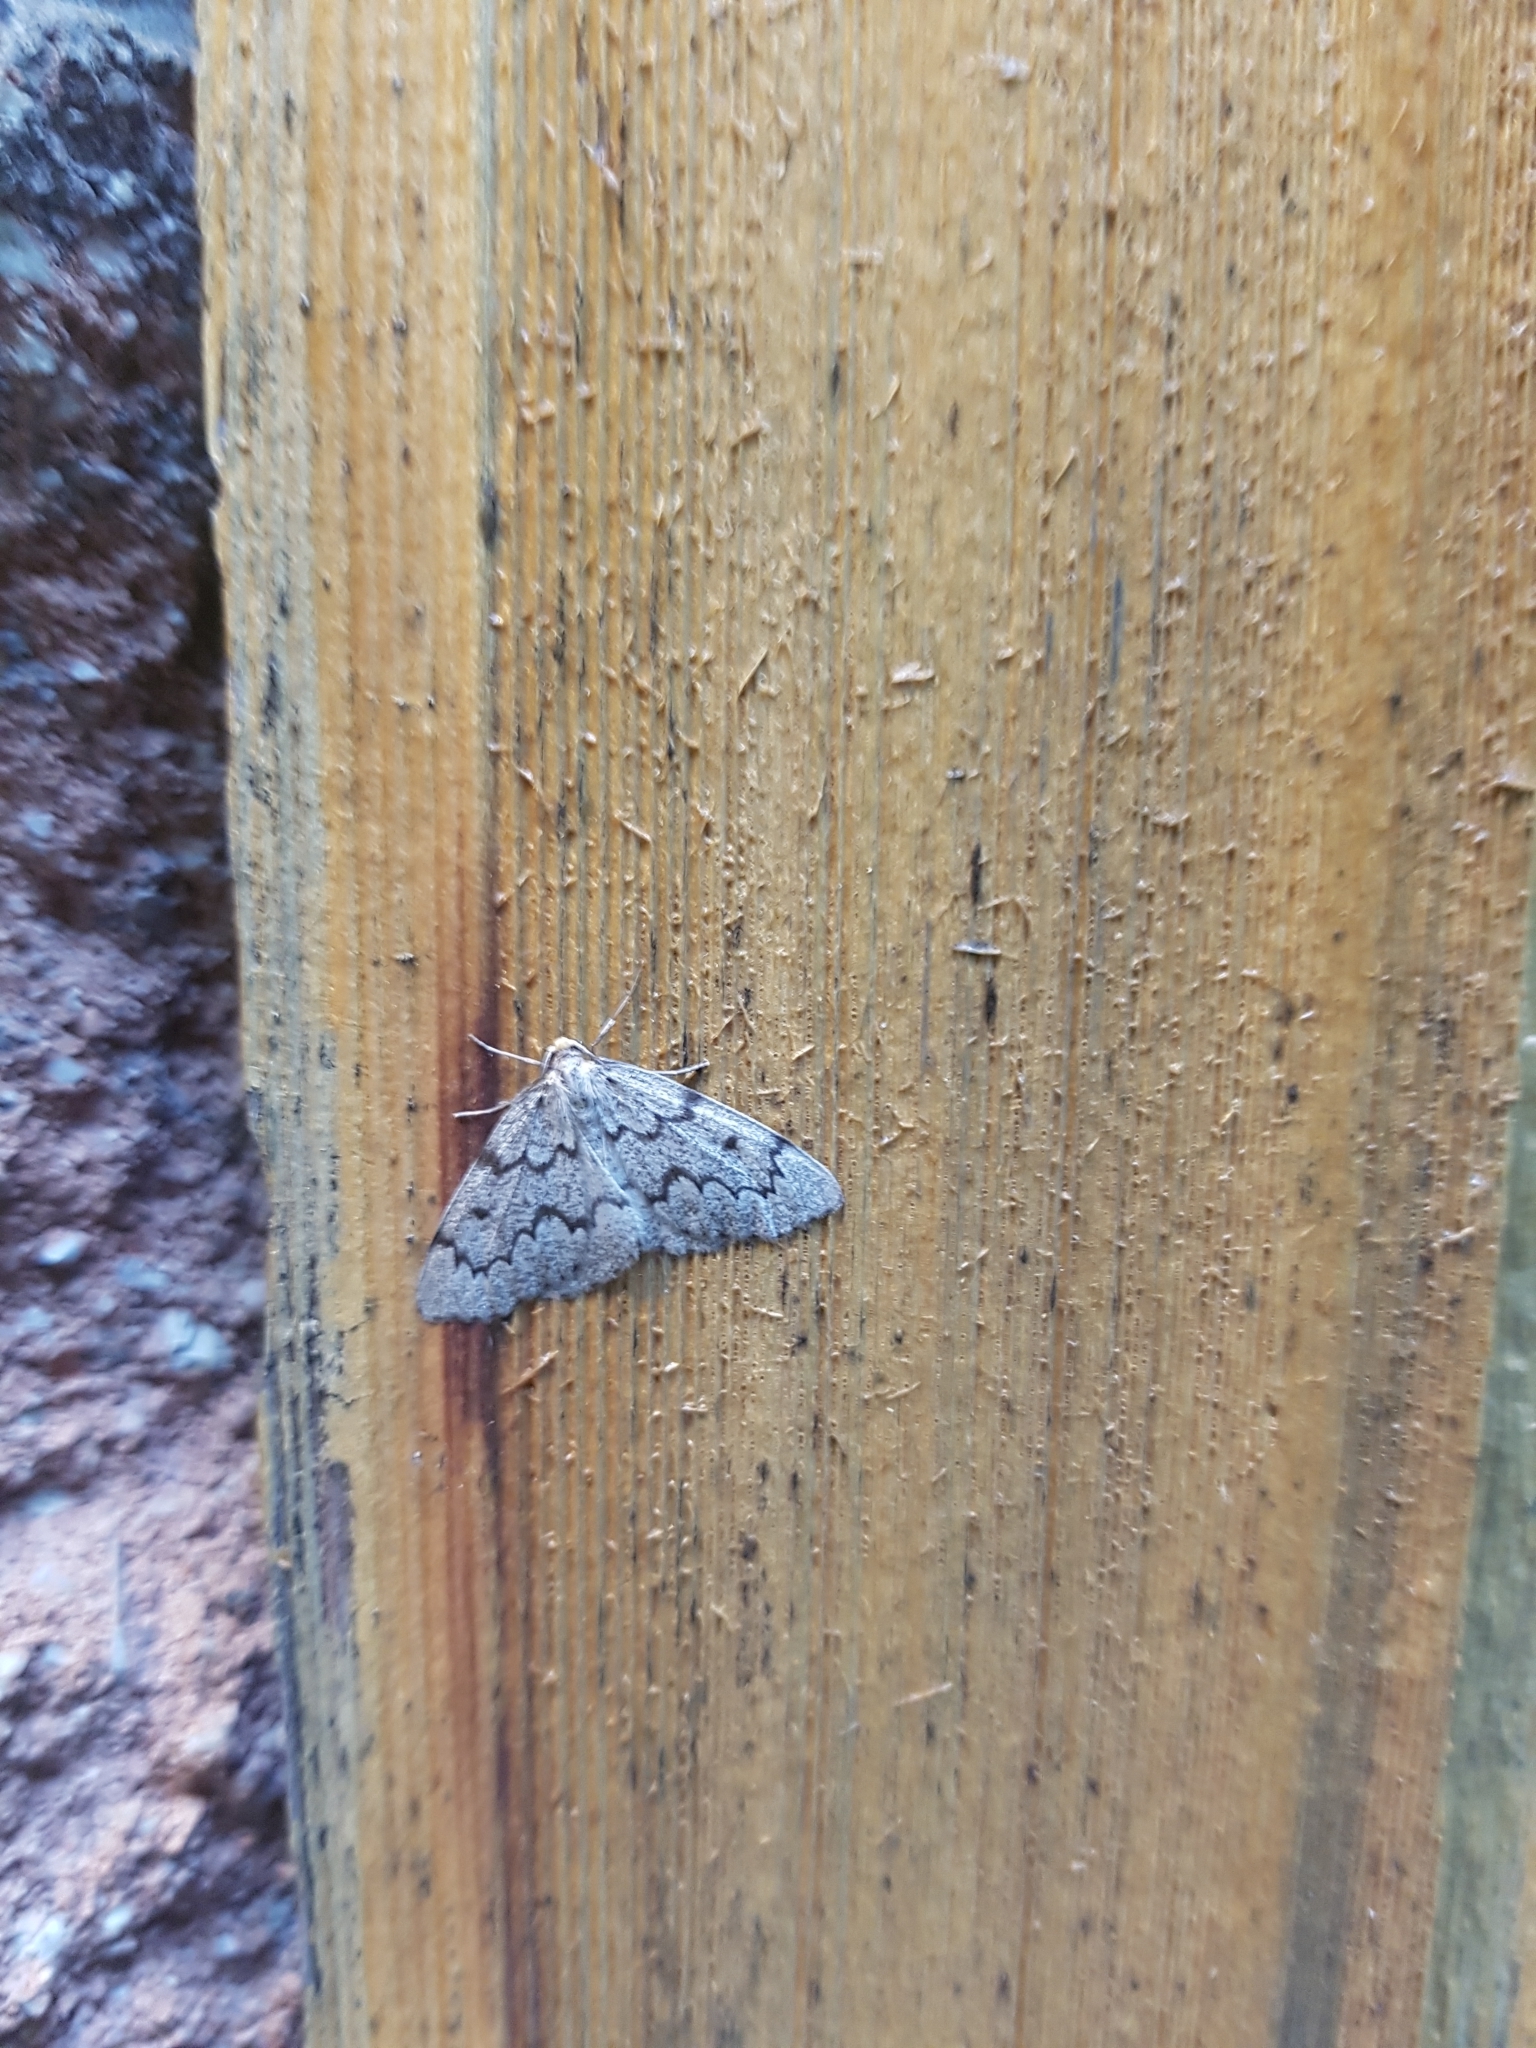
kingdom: Animalia
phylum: Arthropoda
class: Insecta
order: Lepidoptera
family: Geometridae
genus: Nepytia
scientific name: Nepytia canosaria
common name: False hemlock looper
